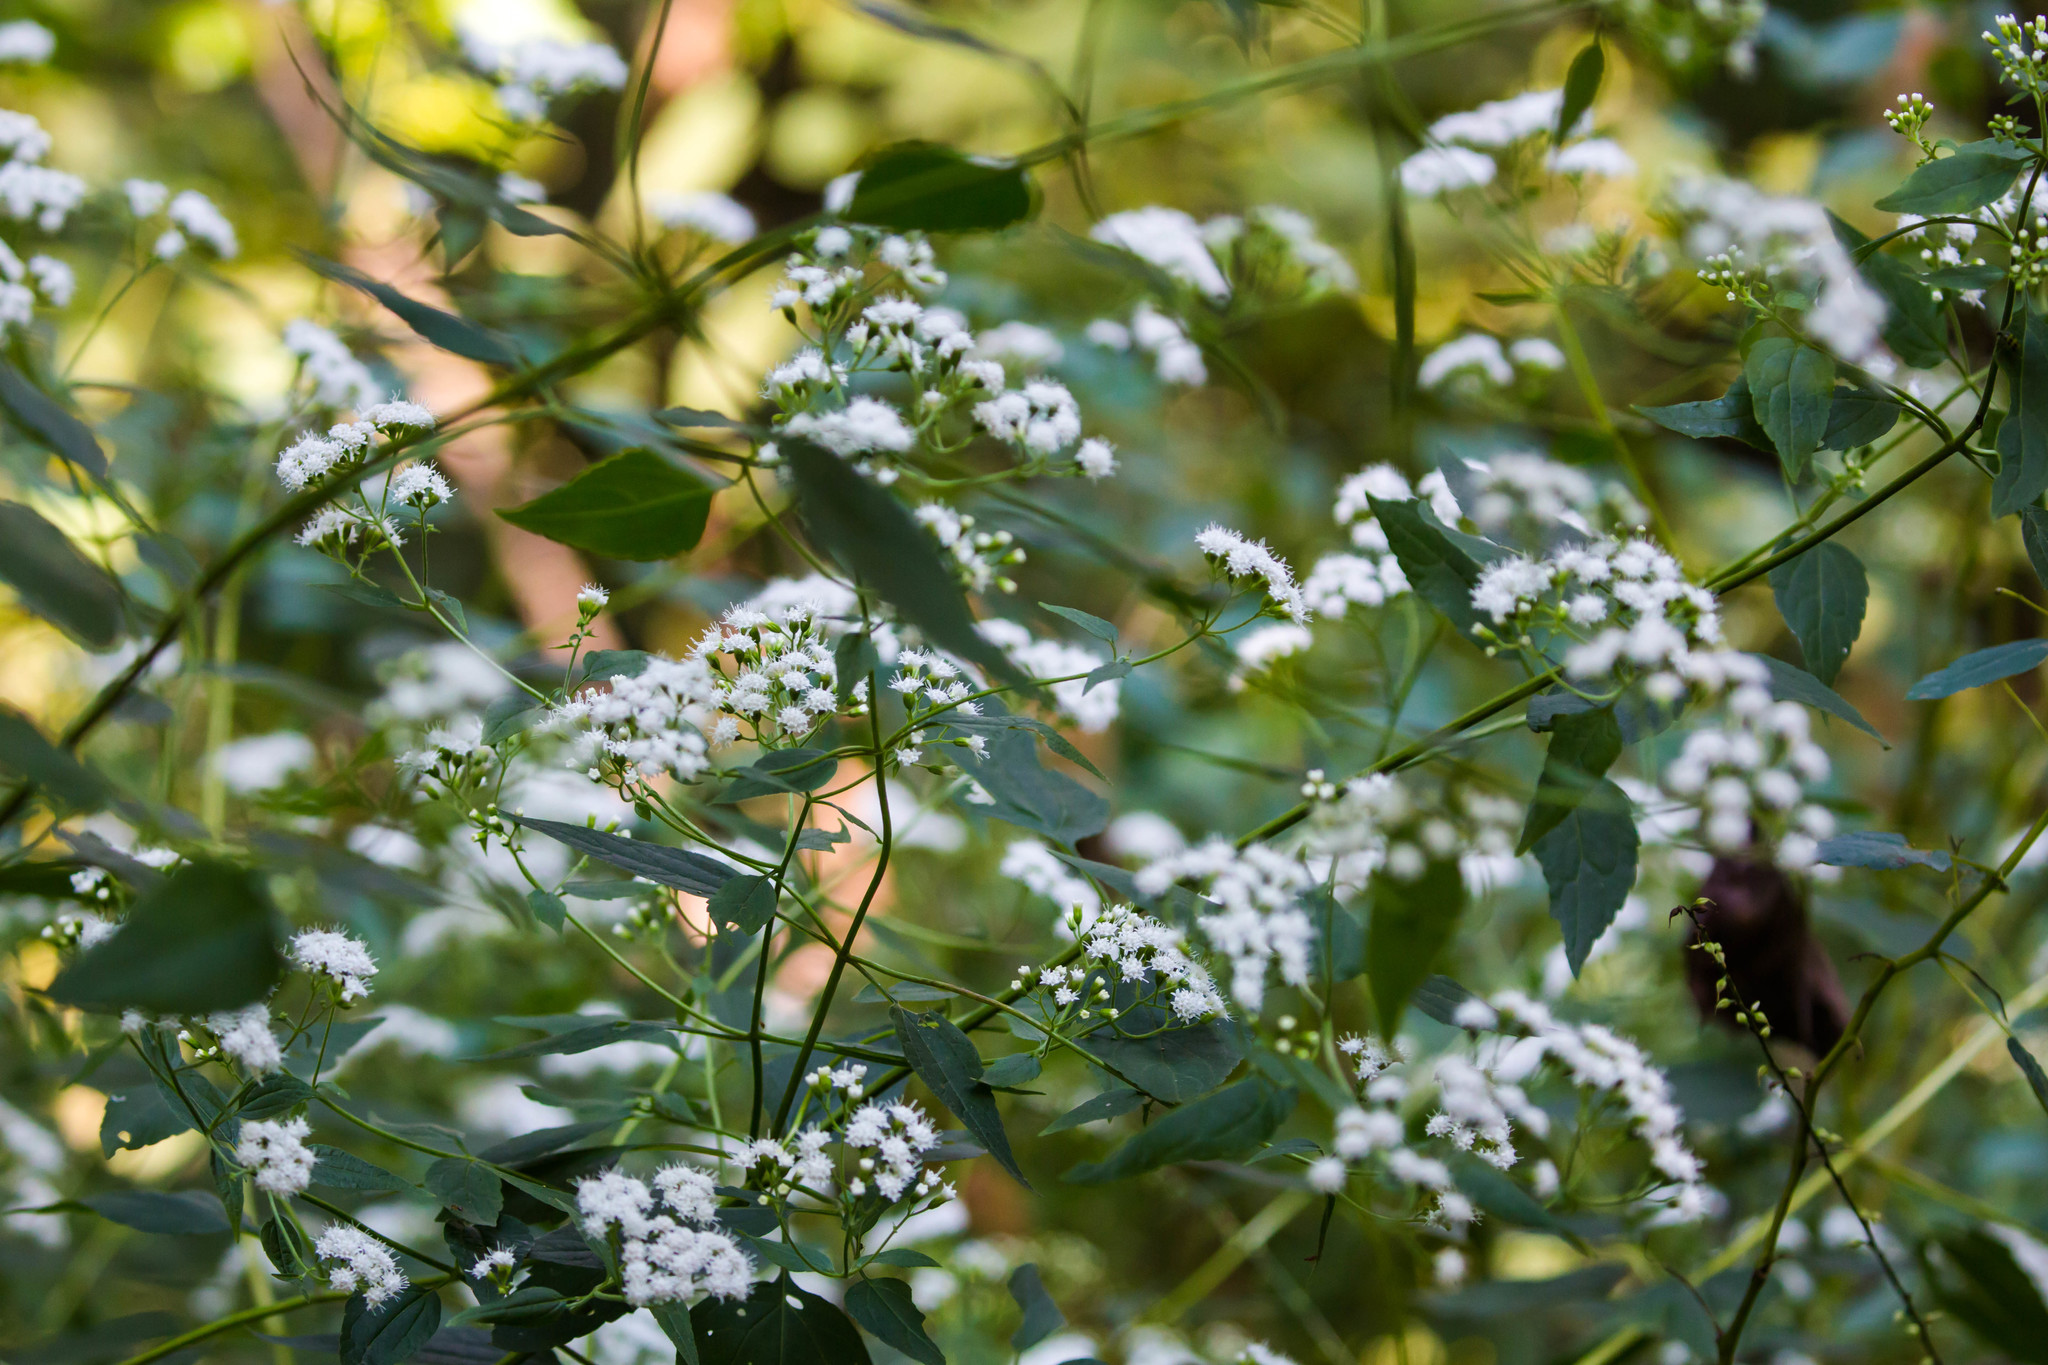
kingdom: Plantae
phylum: Tracheophyta
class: Magnoliopsida
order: Asterales
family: Asteraceae
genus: Ageratina
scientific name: Ageratina altissima
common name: White snakeroot
